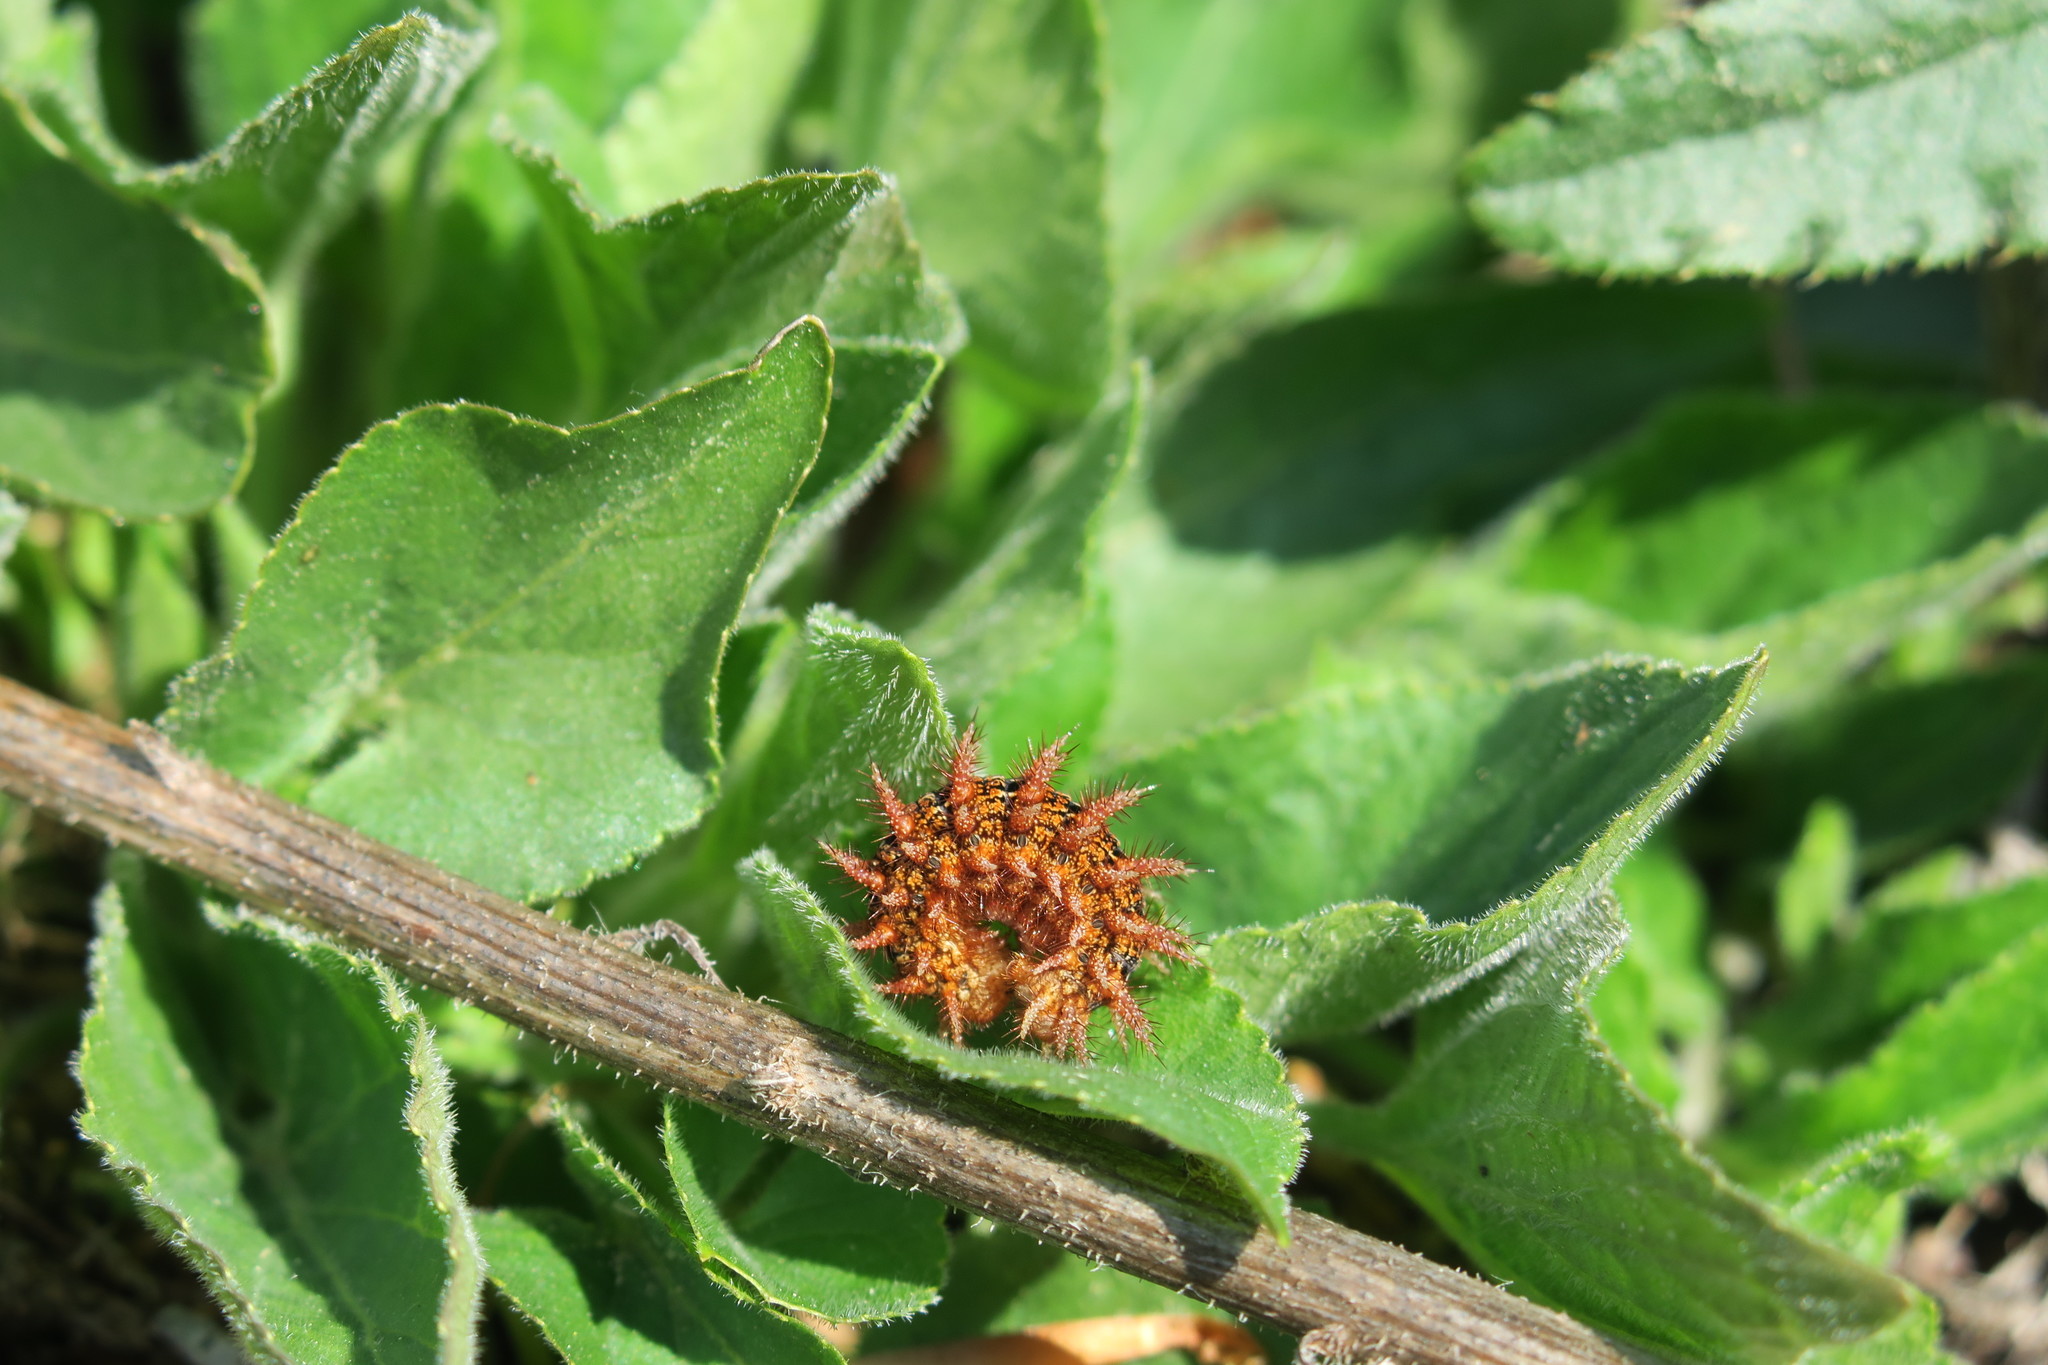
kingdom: Animalia
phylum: Arthropoda
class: Insecta
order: Lepidoptera
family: Nymphalidae
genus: Fabriciana
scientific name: Fabriciana adippe
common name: High brown fritillary
